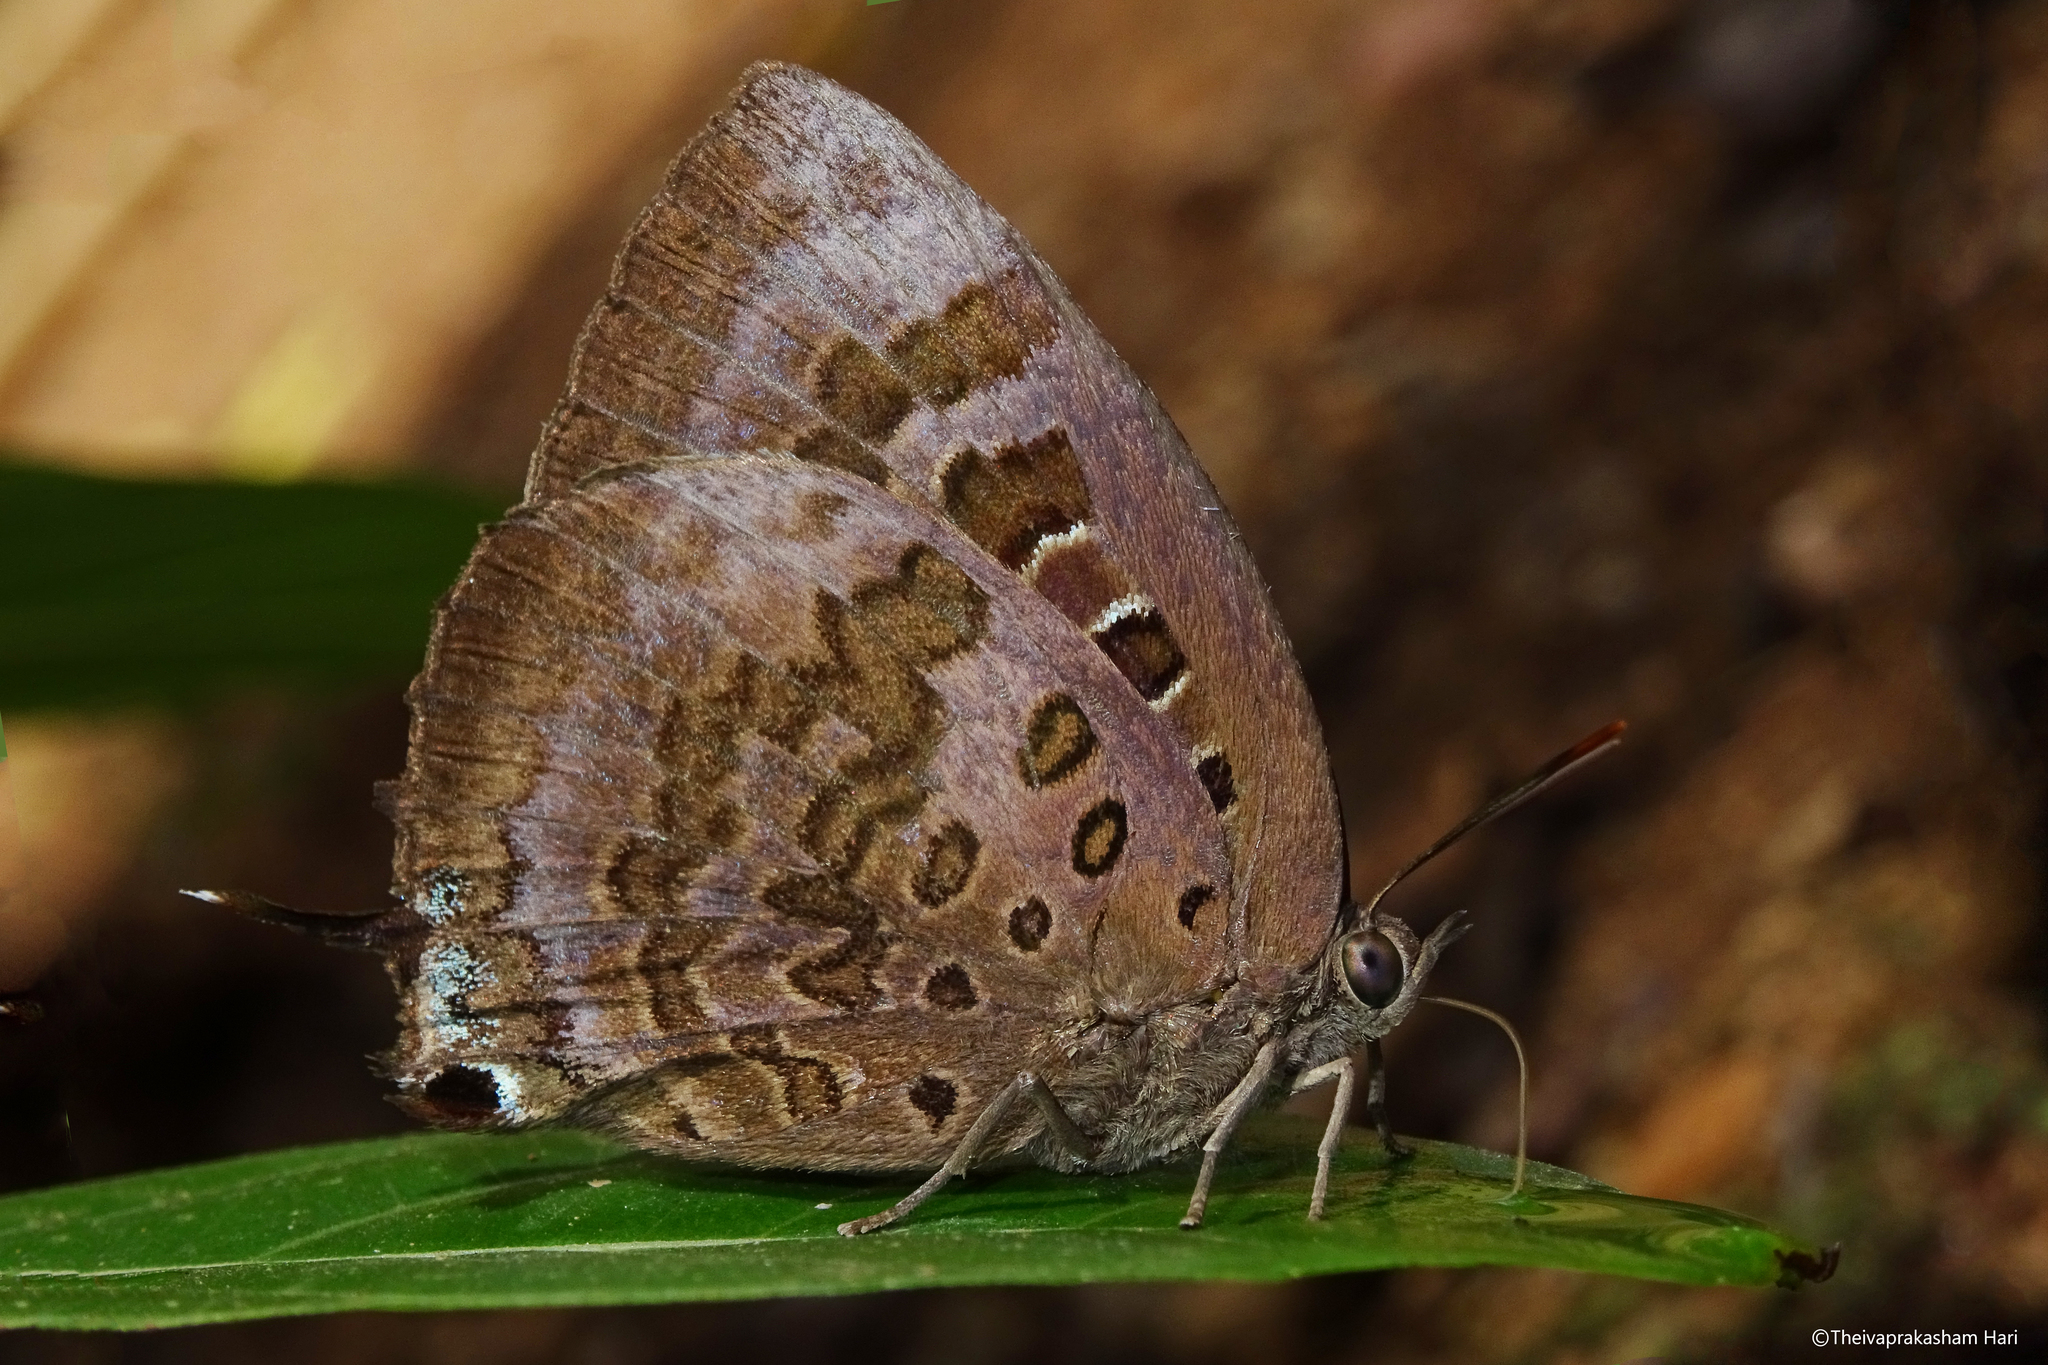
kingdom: Animalia
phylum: Arthropoda
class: Insecta
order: Lepidoptera
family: Lycaenidae
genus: Arhopala
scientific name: Arhopala amantes
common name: Large oakblue
